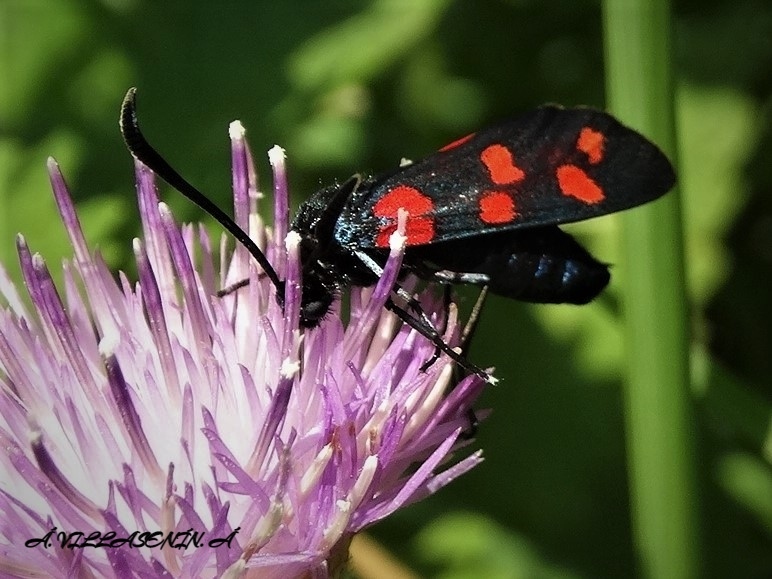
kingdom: Animalia
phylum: Arthropoda
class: Insecta
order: Lepidoptera
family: Zygaenidae
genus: Zygaena
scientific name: Zygaena filipendulae
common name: Six-spot burnet
